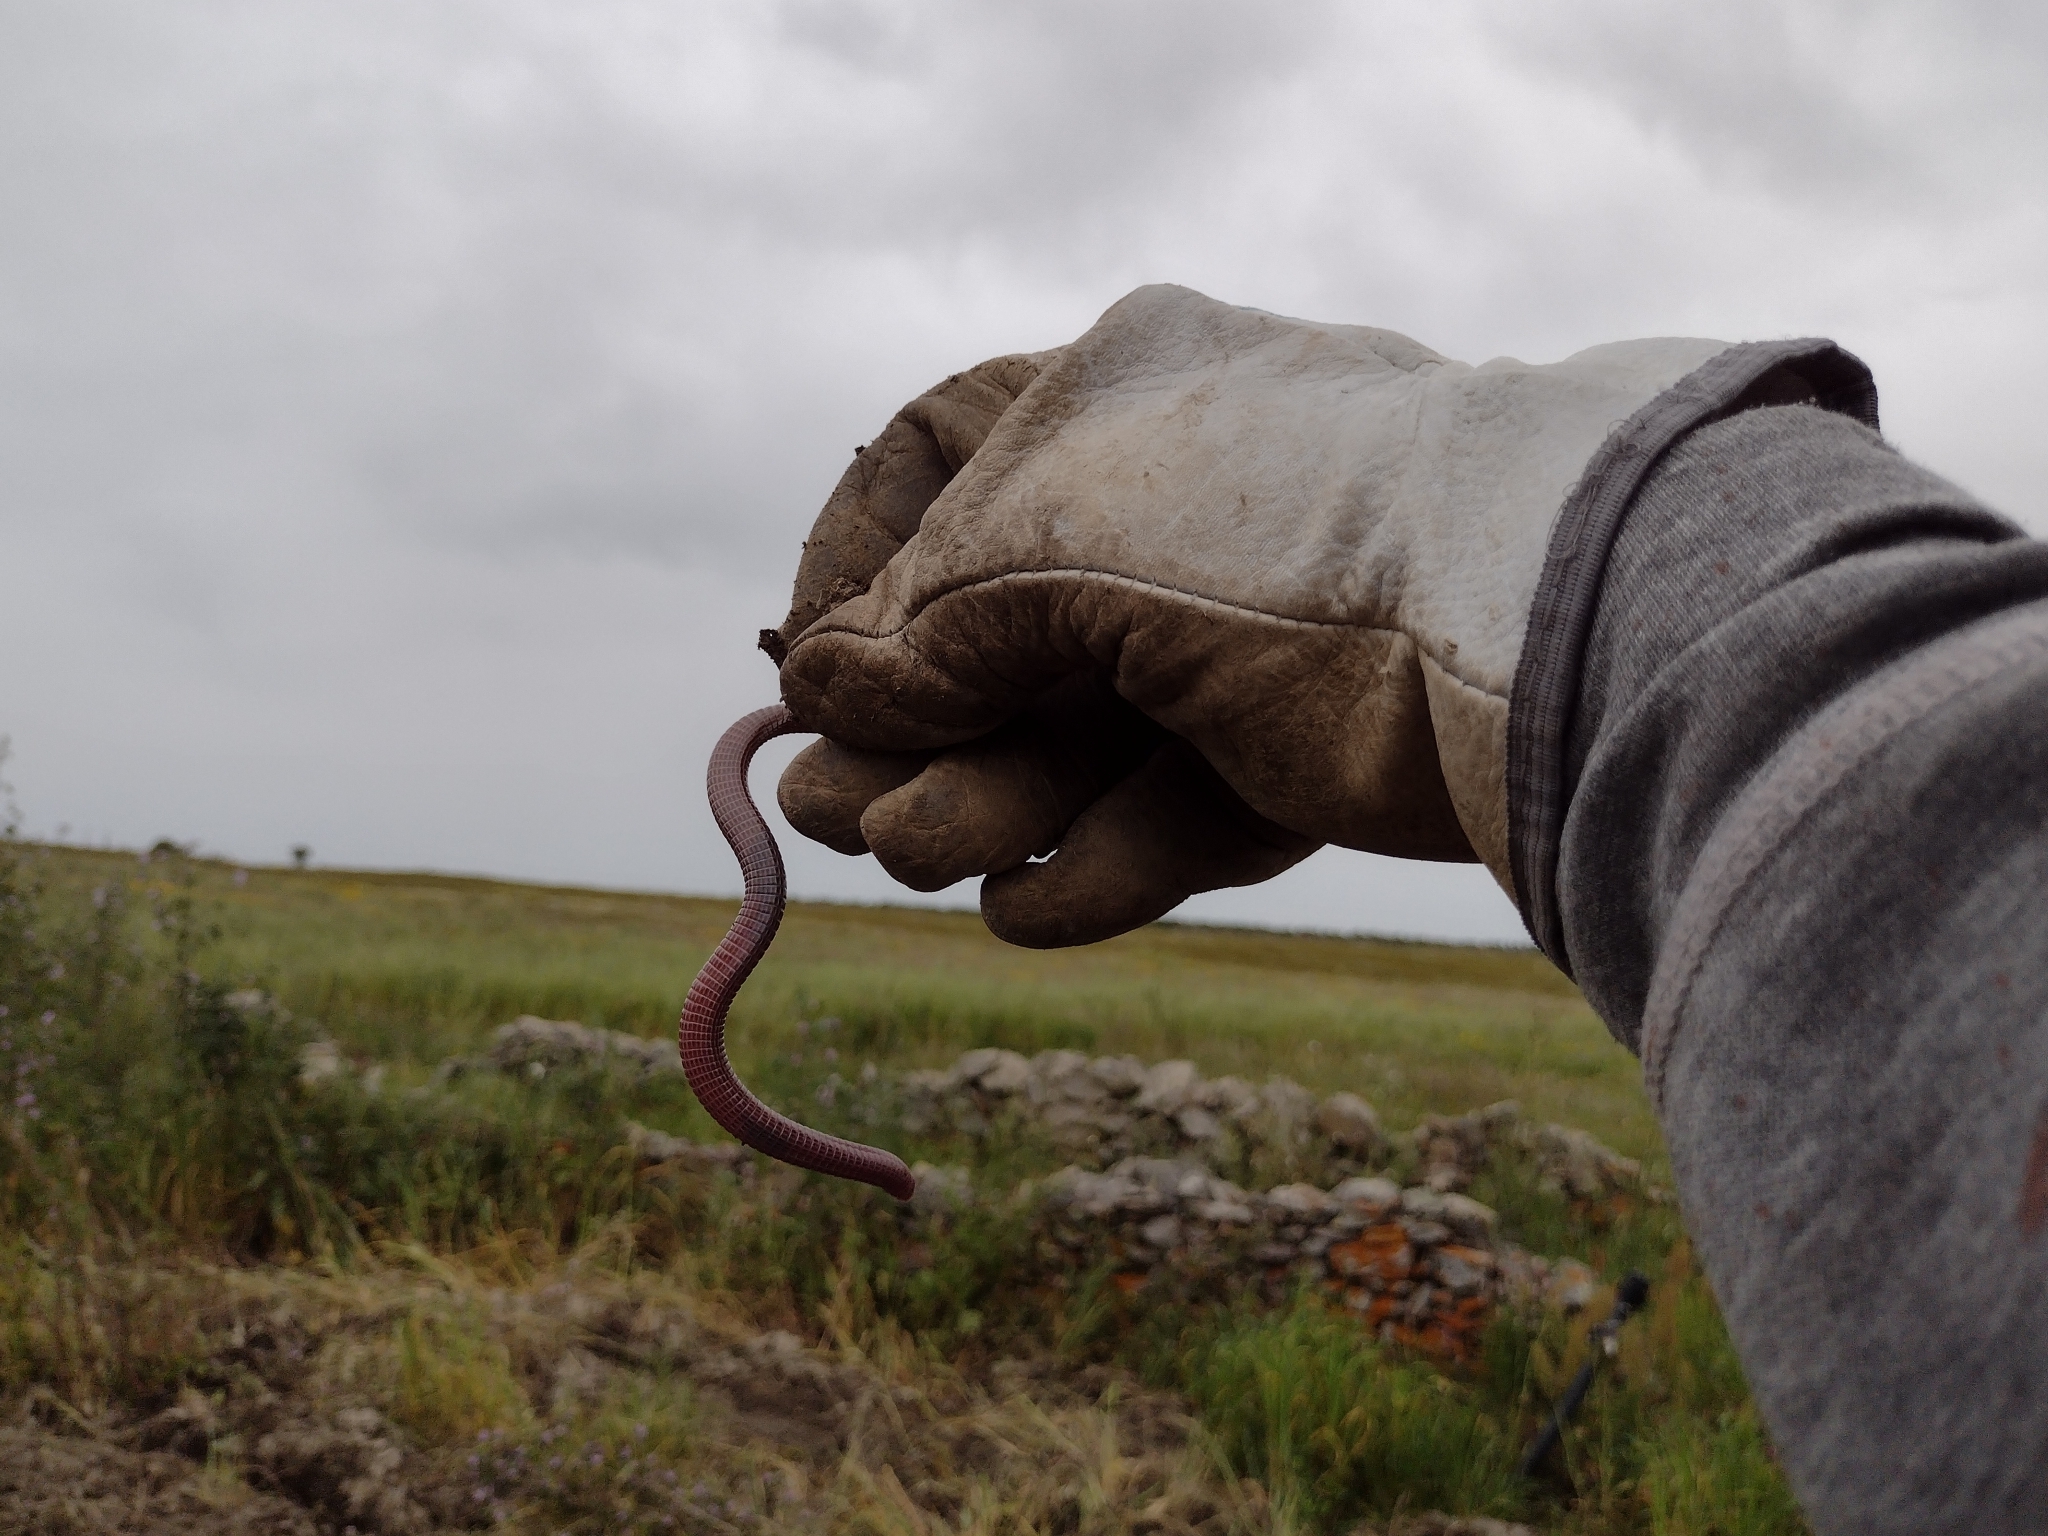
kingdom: Animalia
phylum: Chordata
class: Squamata
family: Blanidae
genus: Blanus
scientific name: Blanus cinereus
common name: Mediterranean worm lizard
